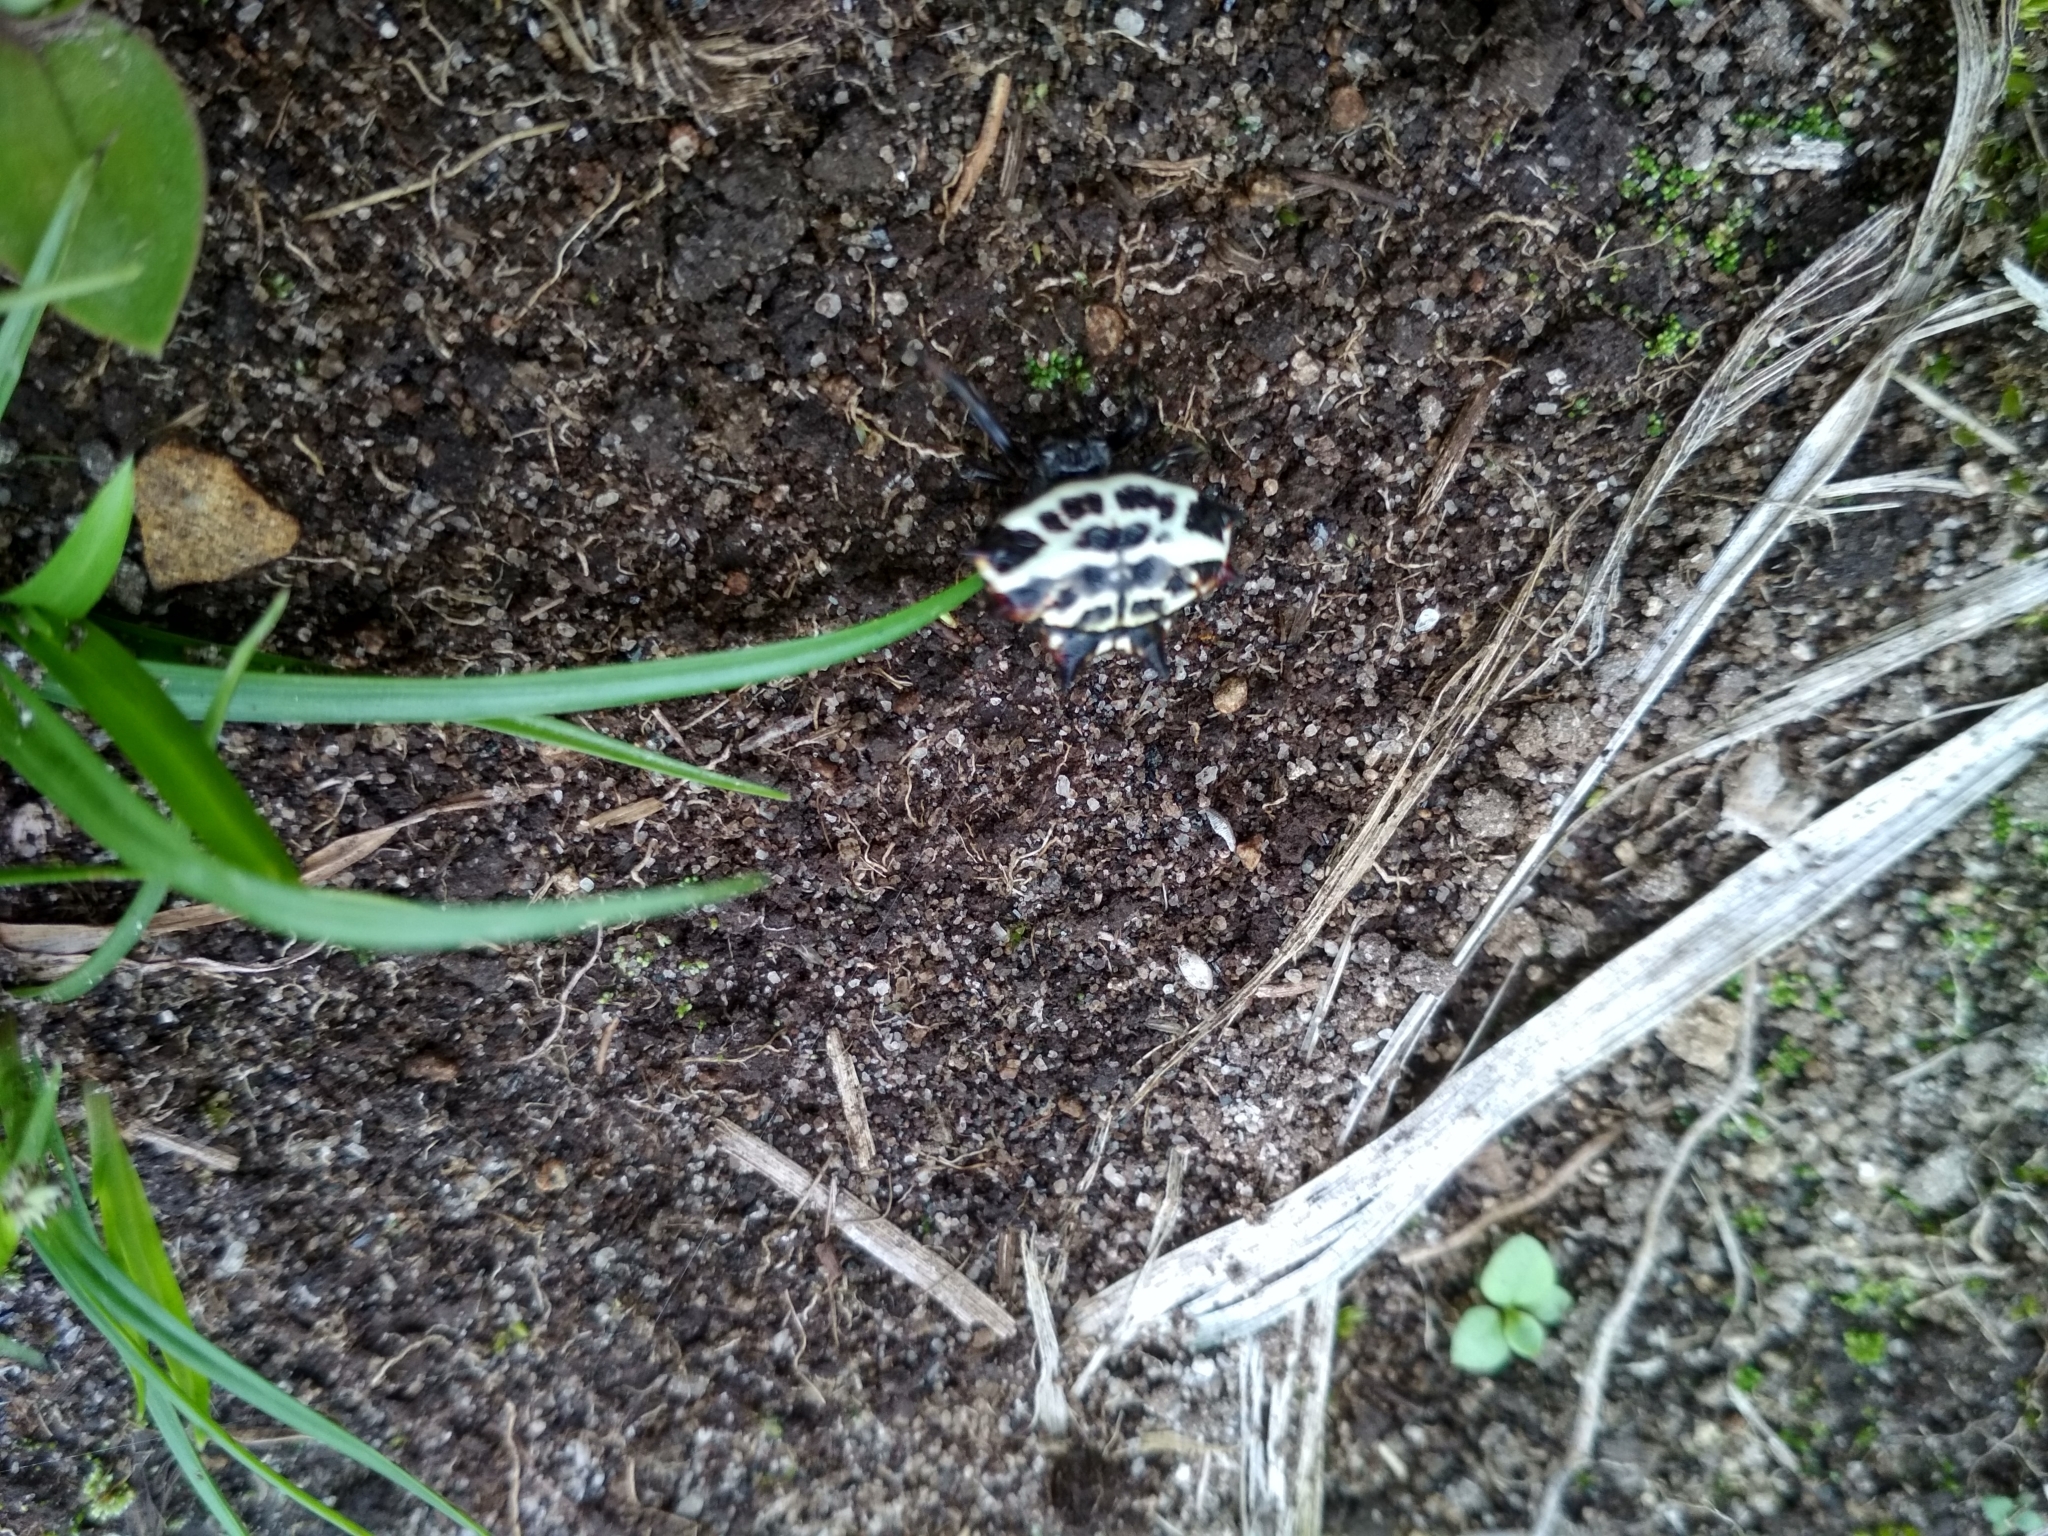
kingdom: Animalia
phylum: Arthropoda
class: Arachnida
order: Araneae
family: Araneidae
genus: Gasteracantha
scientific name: Gasteracantha cancriformis
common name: Orb weavers
